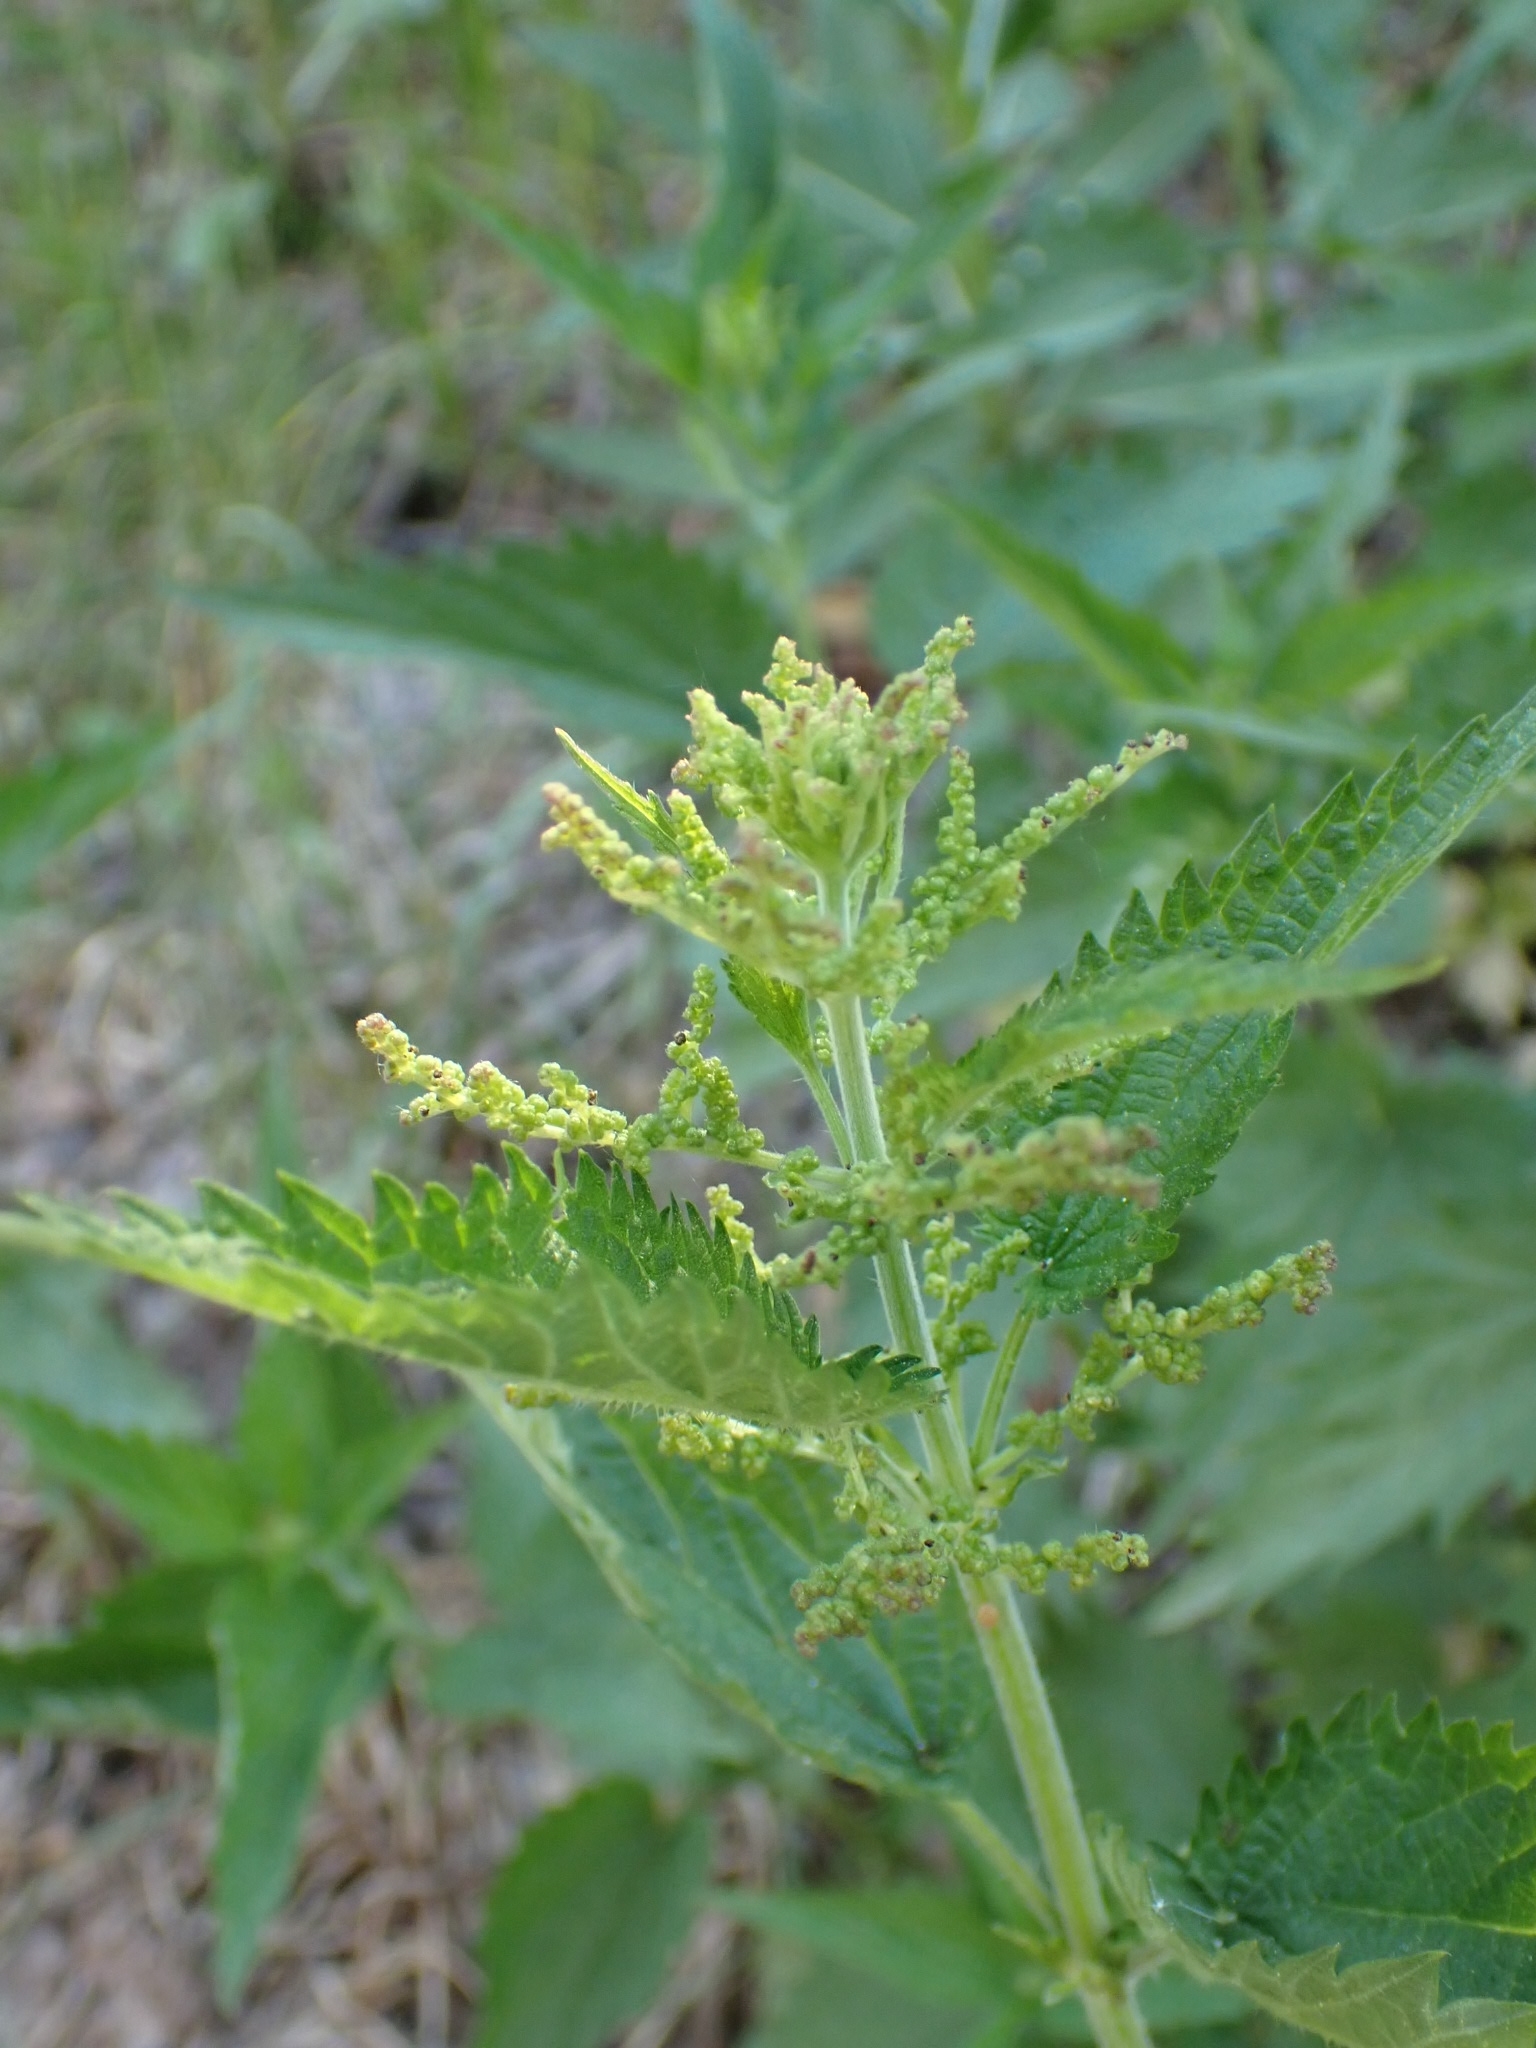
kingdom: Plantae
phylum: Tracheophyta
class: Magnoliopsida
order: Rosales
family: Urticaceae
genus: Urtica
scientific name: Urtica galeopsifolia
